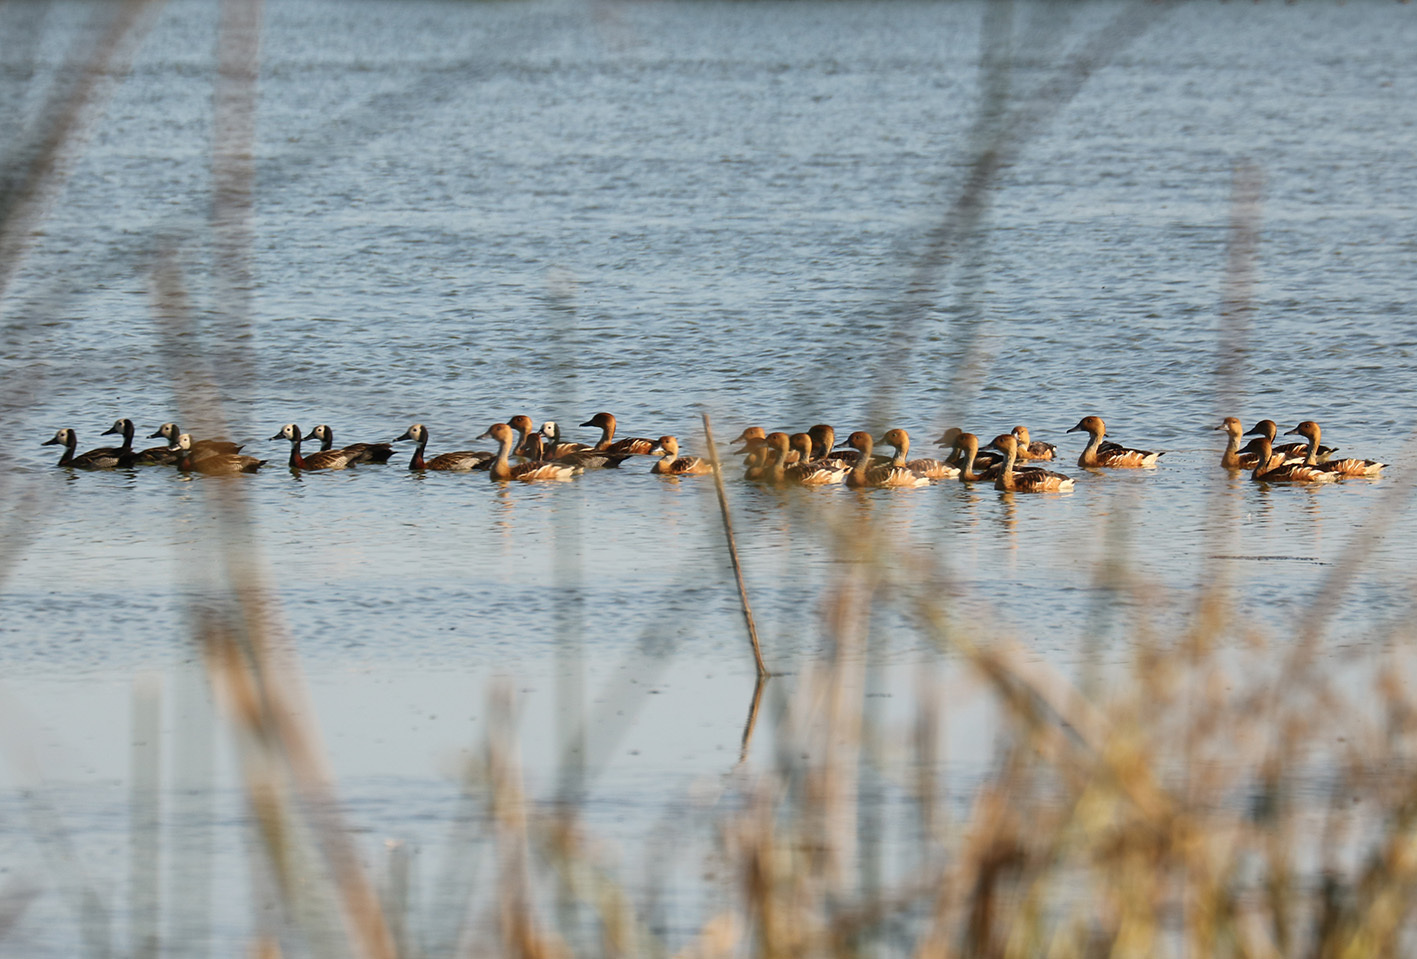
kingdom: Animalia
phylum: Chordata
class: Aves
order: Anseriformes
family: Anatidae
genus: Dendrocygna
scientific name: Dendrocygna viduata
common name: White-faced whistling duck
